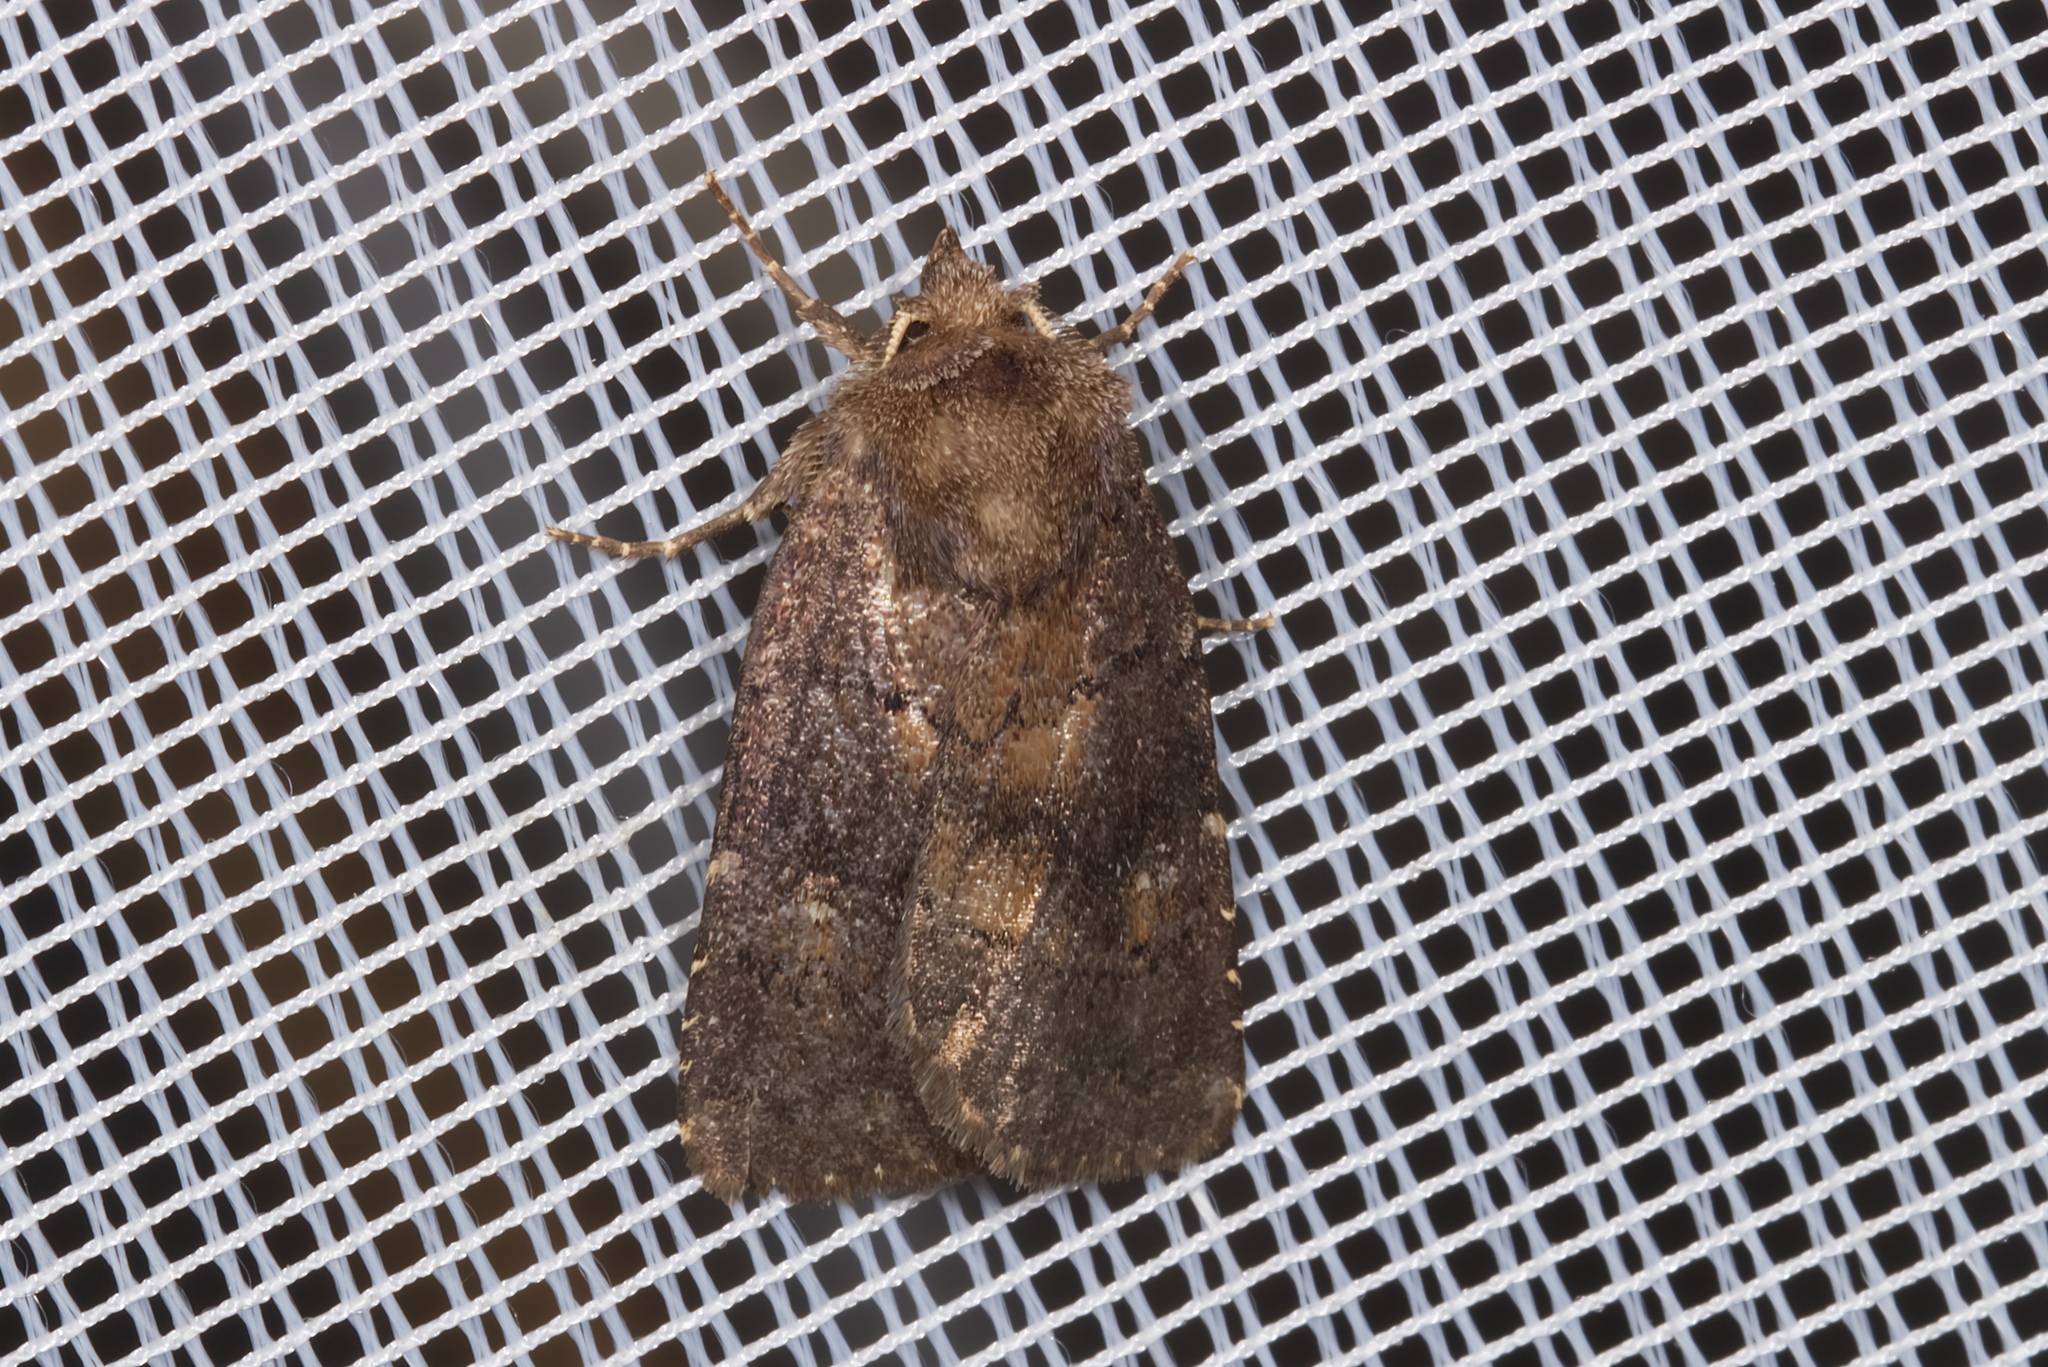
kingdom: Animalia
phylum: Arthropoda
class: Insecta
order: Lepidoptera
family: Noctuidae
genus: Charanyca
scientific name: Charanyca ferruginea
